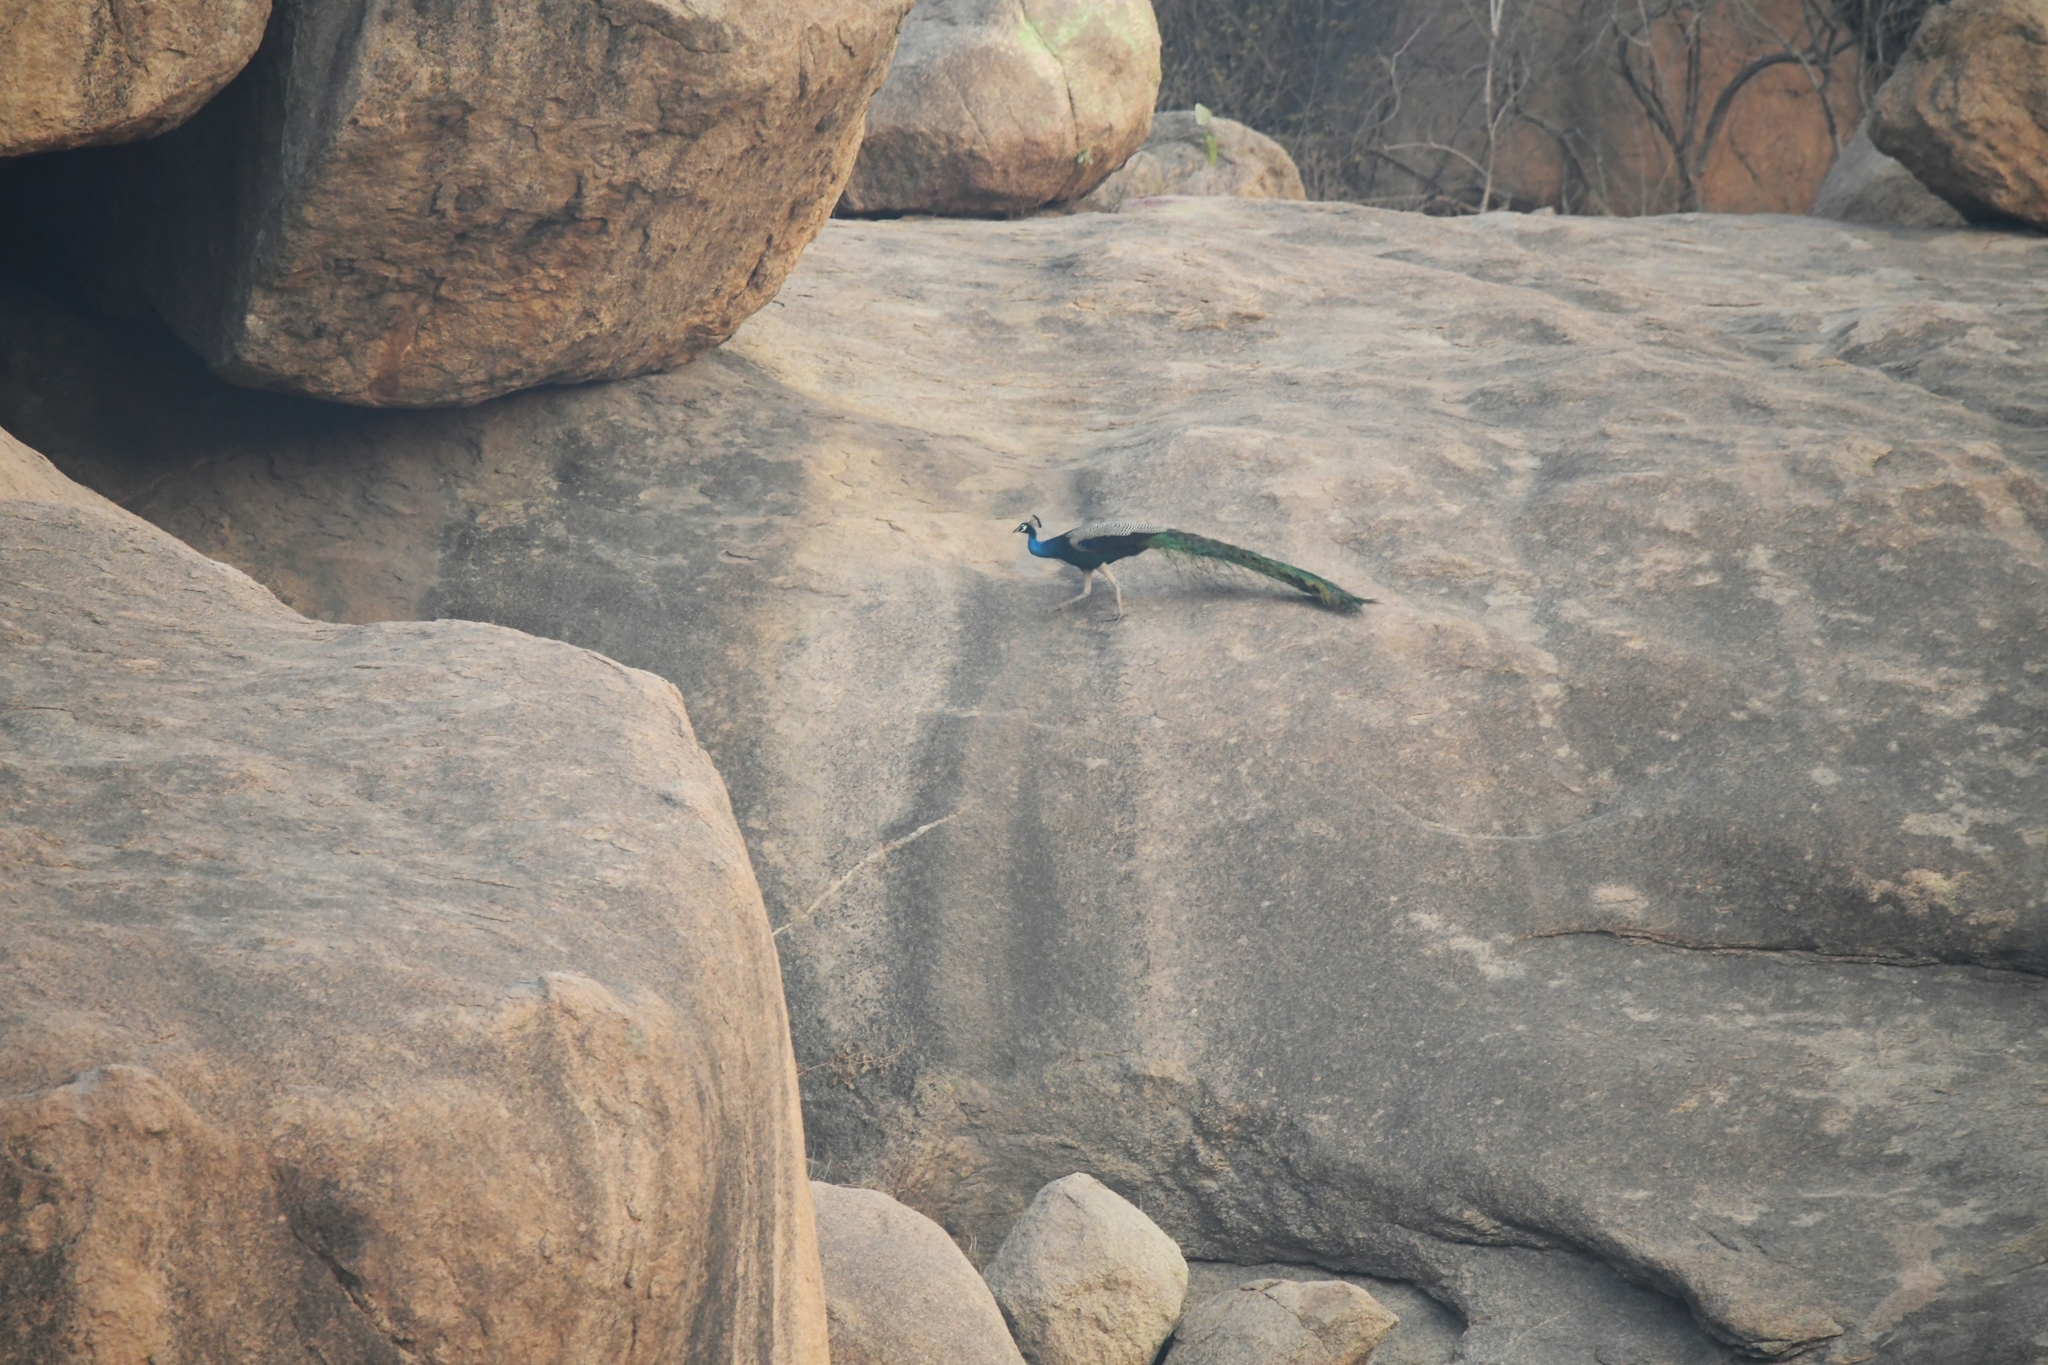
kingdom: Animalia
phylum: Chordata
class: Aves
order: Galliformes
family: Phasianidae
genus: Pavo
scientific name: Pavo cristatus
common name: Indian peafowl
